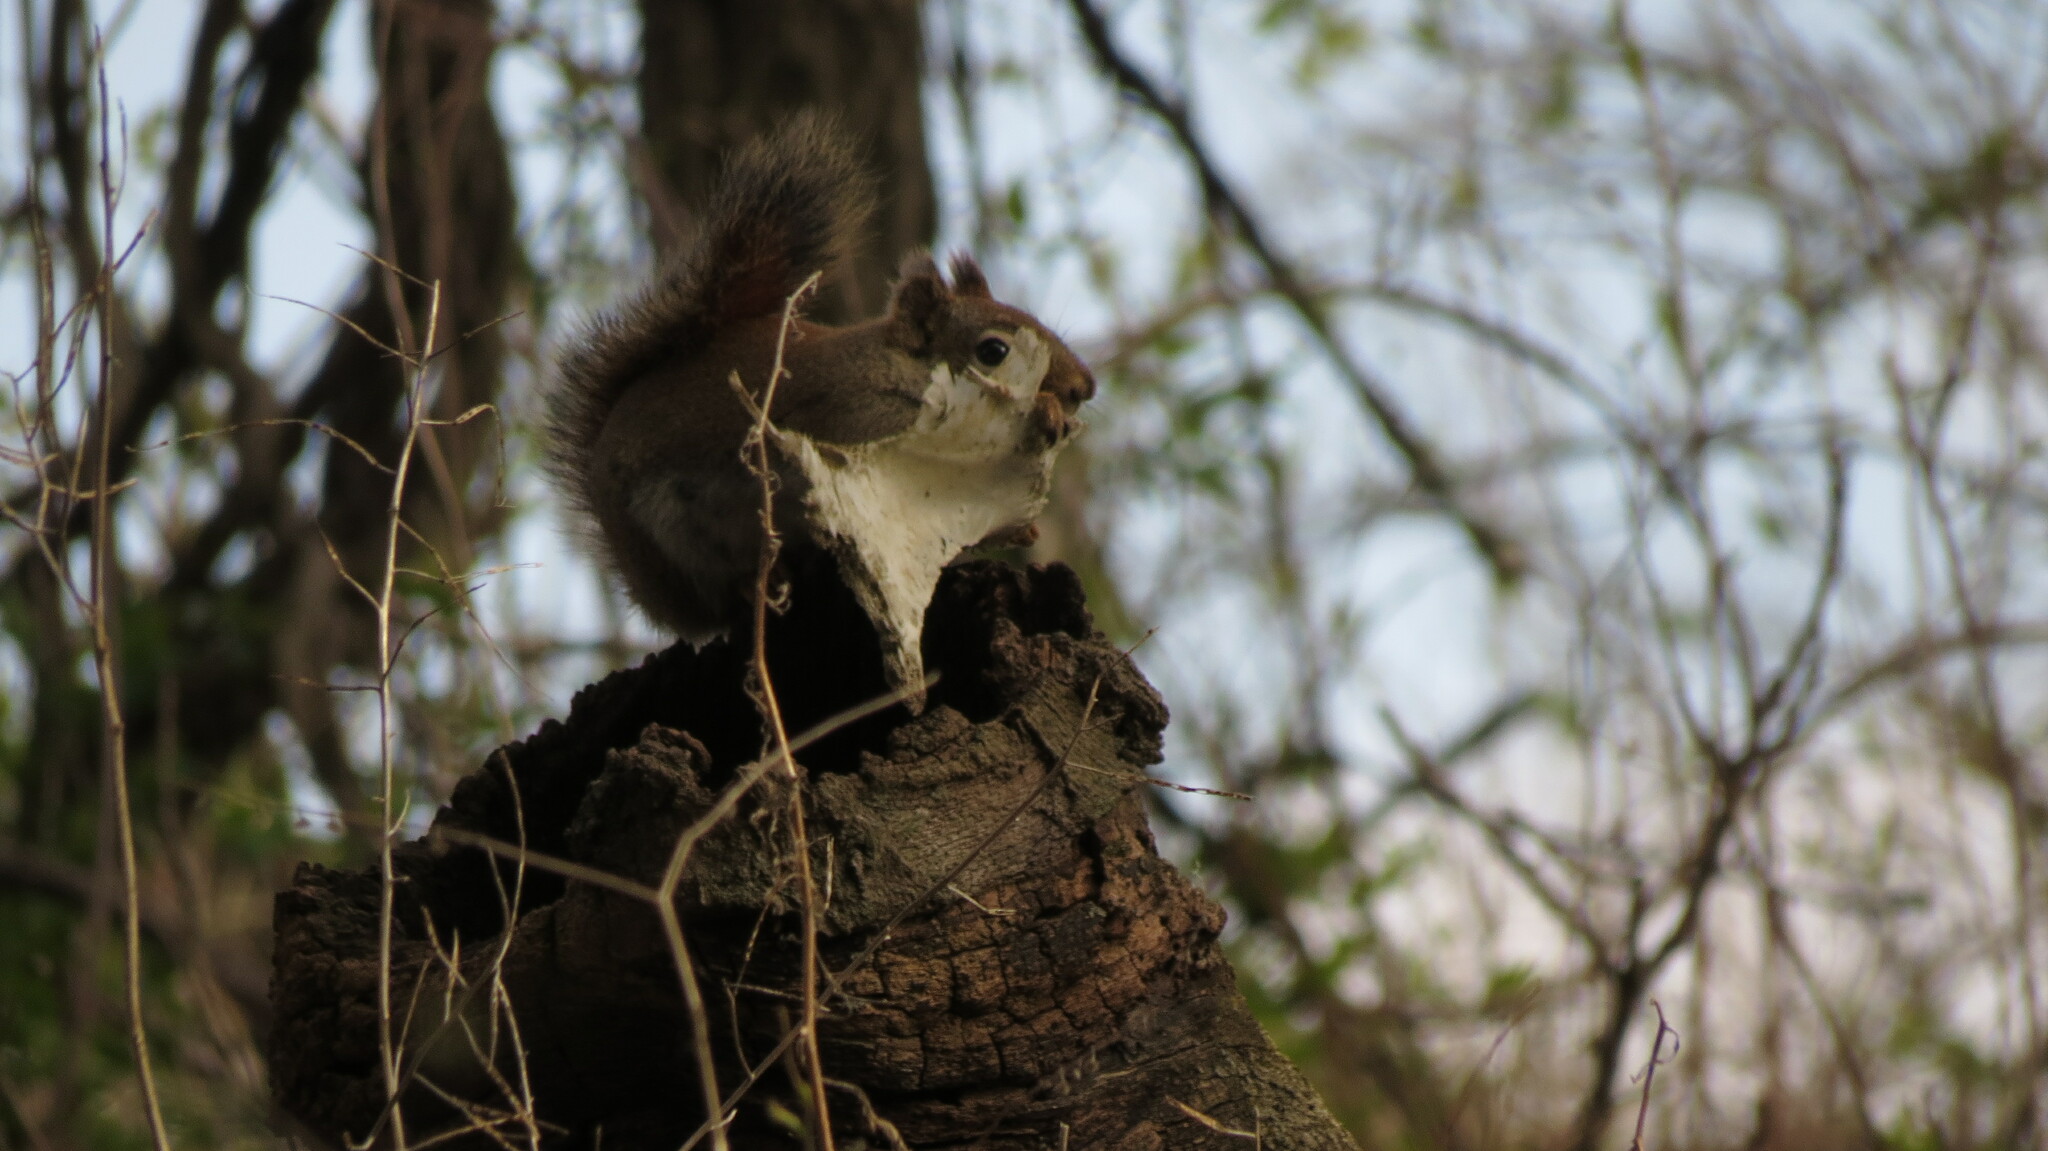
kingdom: Animalia
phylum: Chordata
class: Mammalia
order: Rodentia
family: Sciuridae
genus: Tamiasciurus
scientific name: Tamiasciurus hudsonicus
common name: Red squirrel
